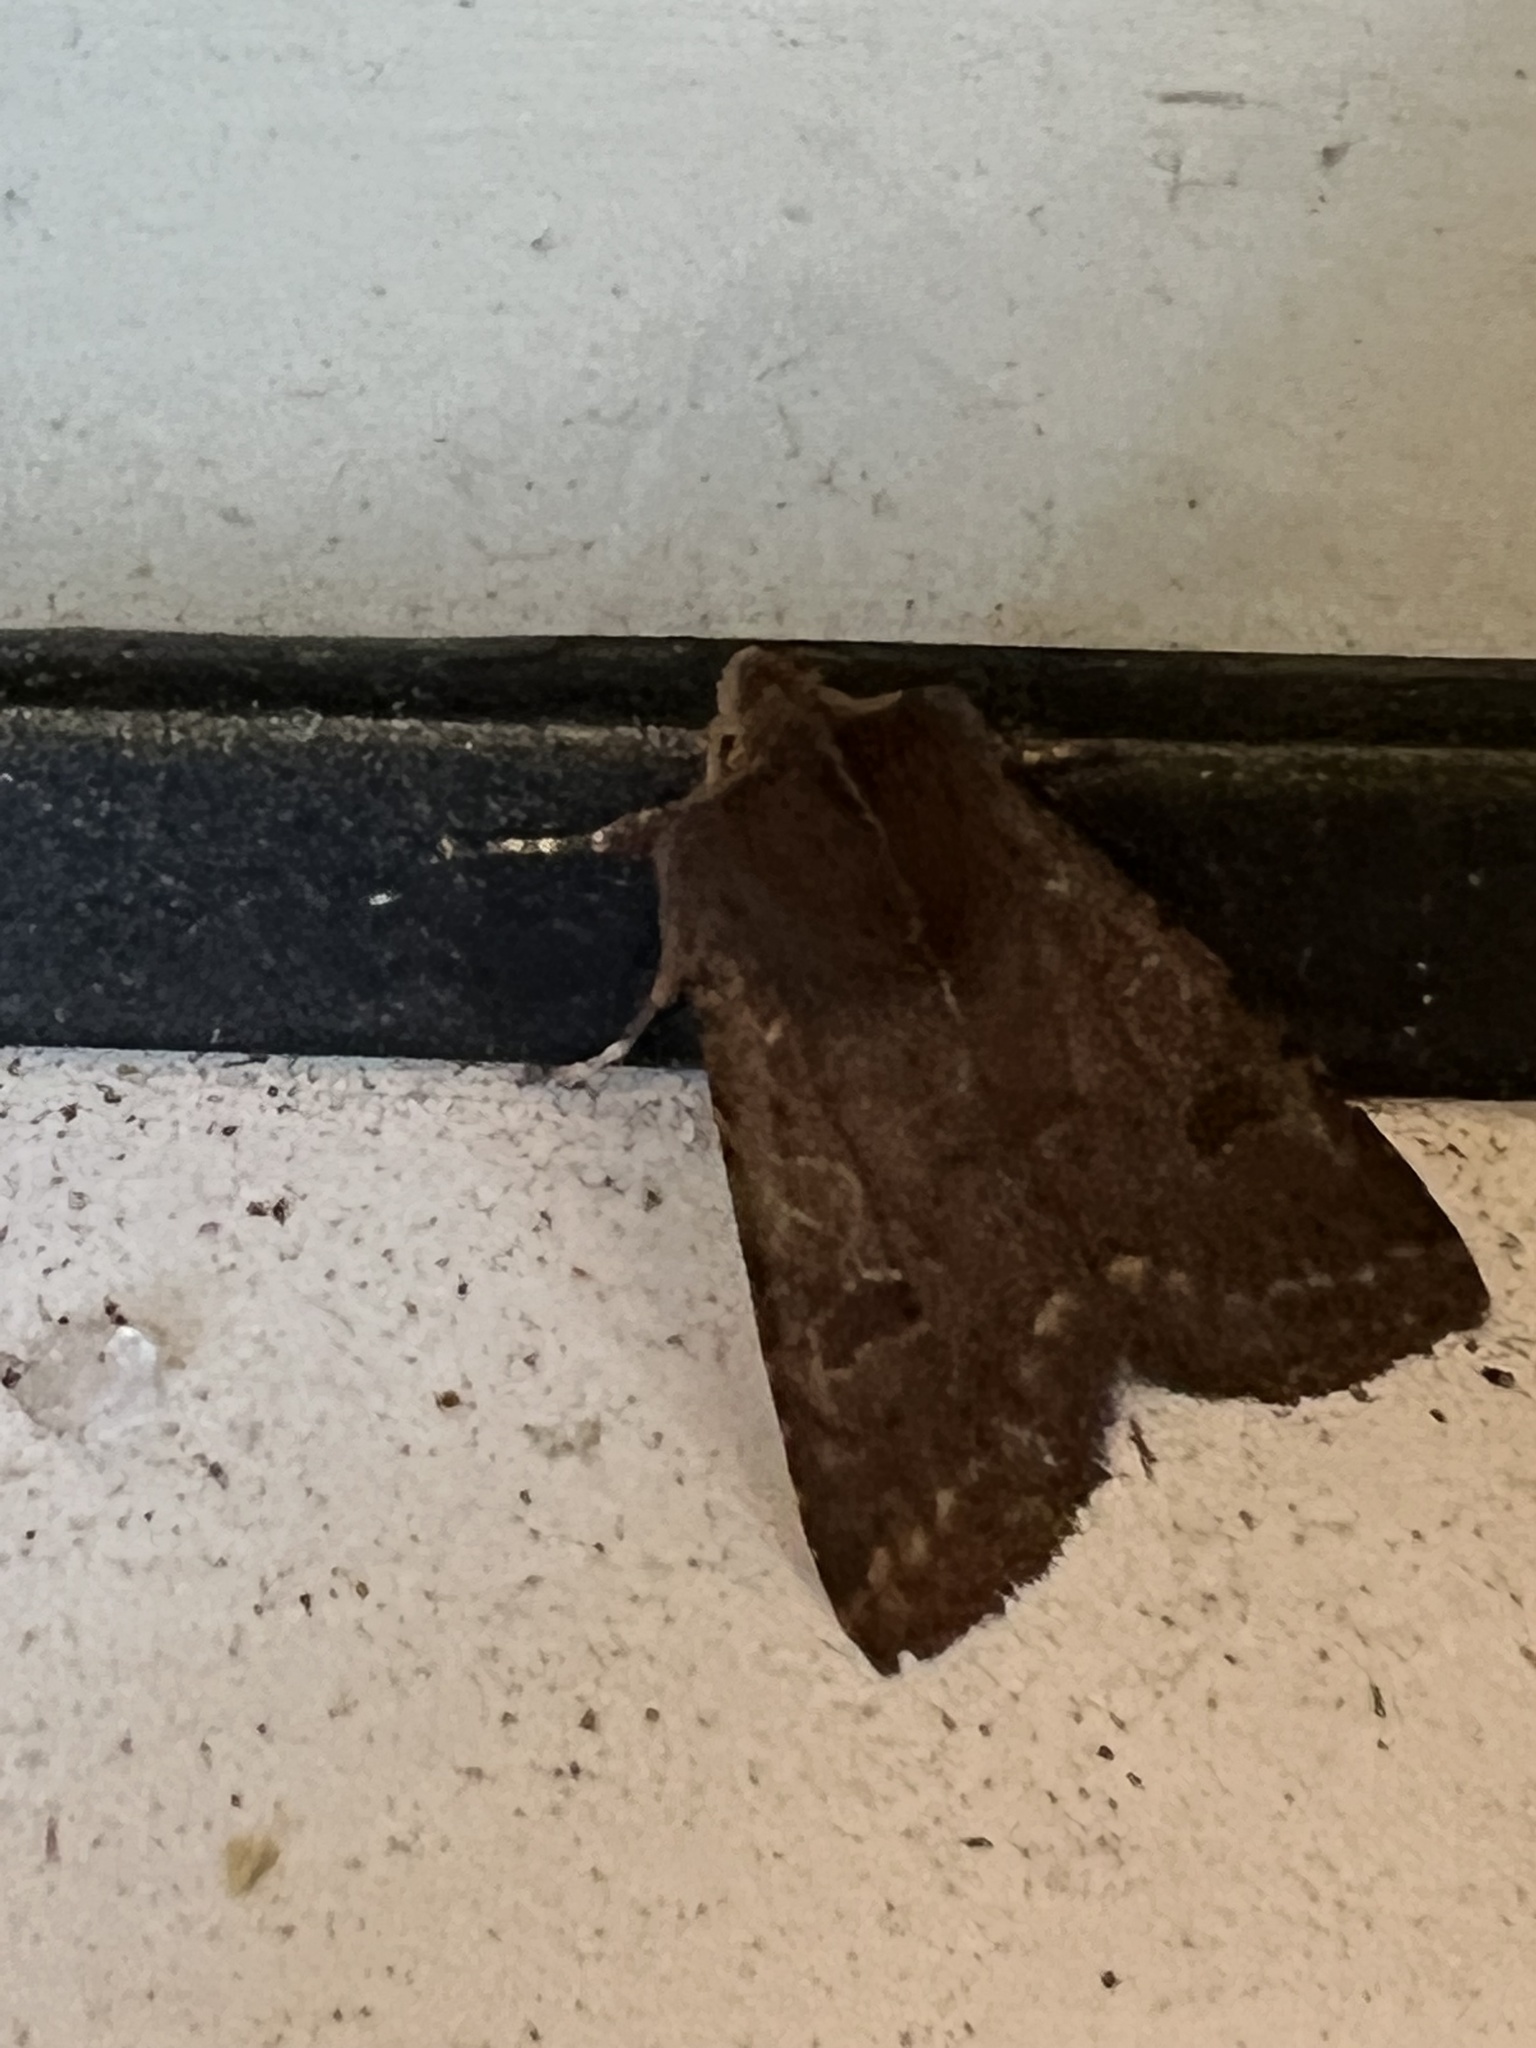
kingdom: Animalia
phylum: Arthropoda
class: Insecta
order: Lepidoptera
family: Noctuidae
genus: Orthosia
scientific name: Orthosia praeses
